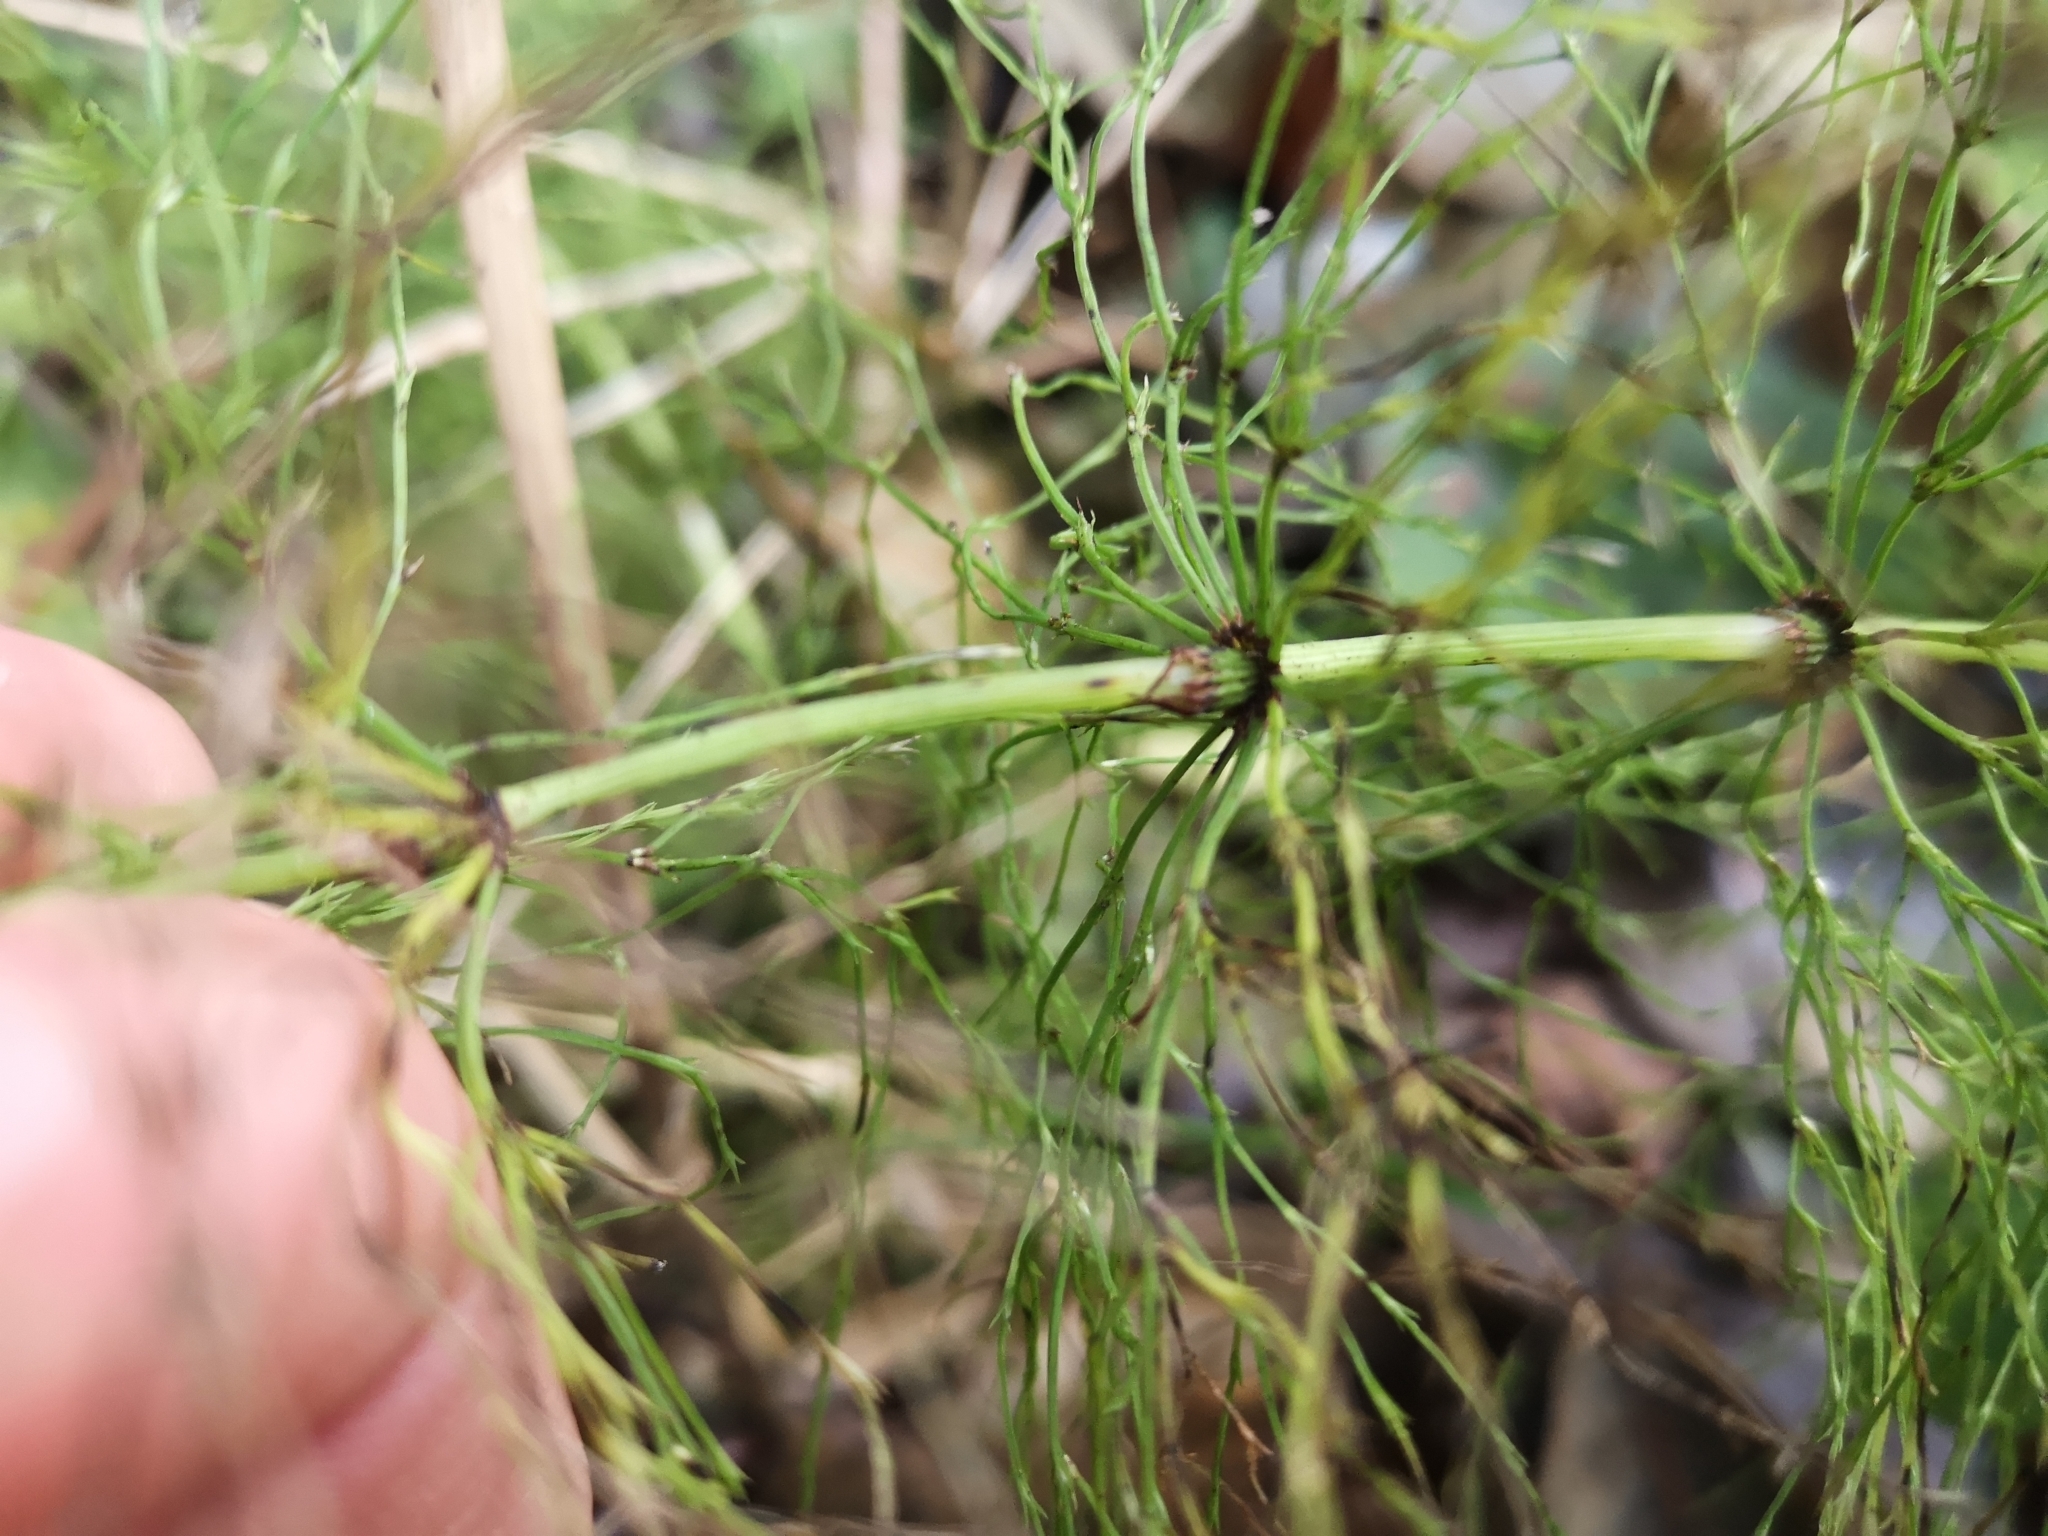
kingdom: Plantae
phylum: Tracheophyta
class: Polypodiopsida
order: Equisetales
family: Equisetaceae
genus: Equisetum
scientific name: Equisetum sylvaticum
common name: Wood horsetail
